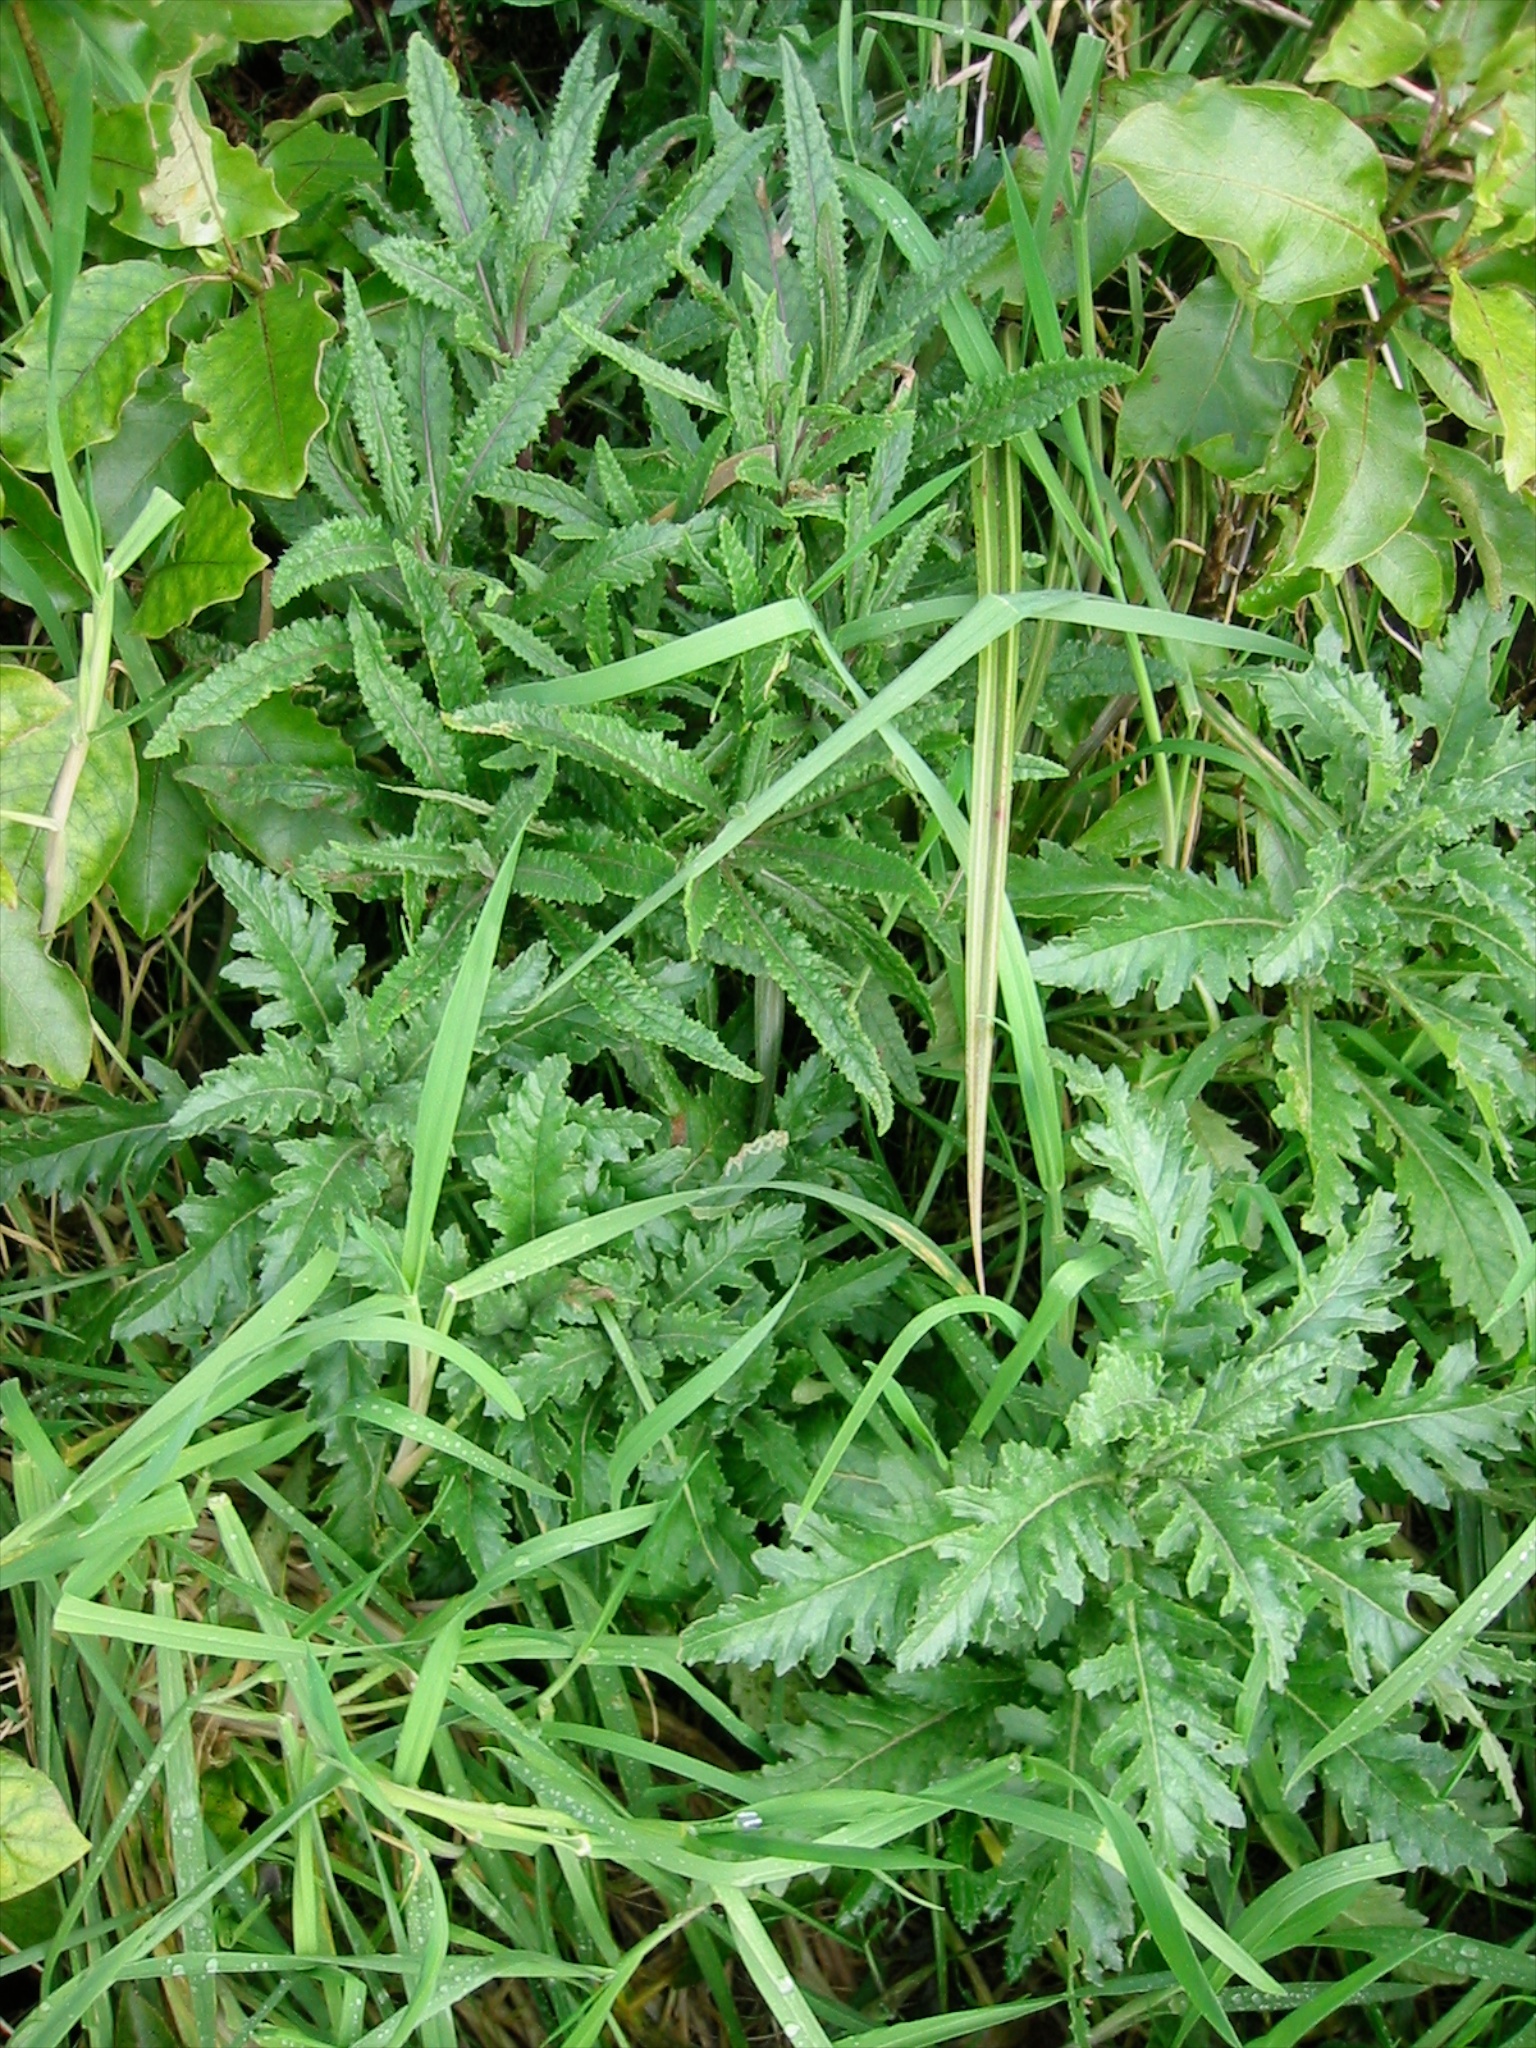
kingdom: Plantae
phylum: Tracheophyta
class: Magnoliopsida
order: Asterales
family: Asteraceae
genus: Senecio
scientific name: Senecio minimus
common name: Toothed fireweed
